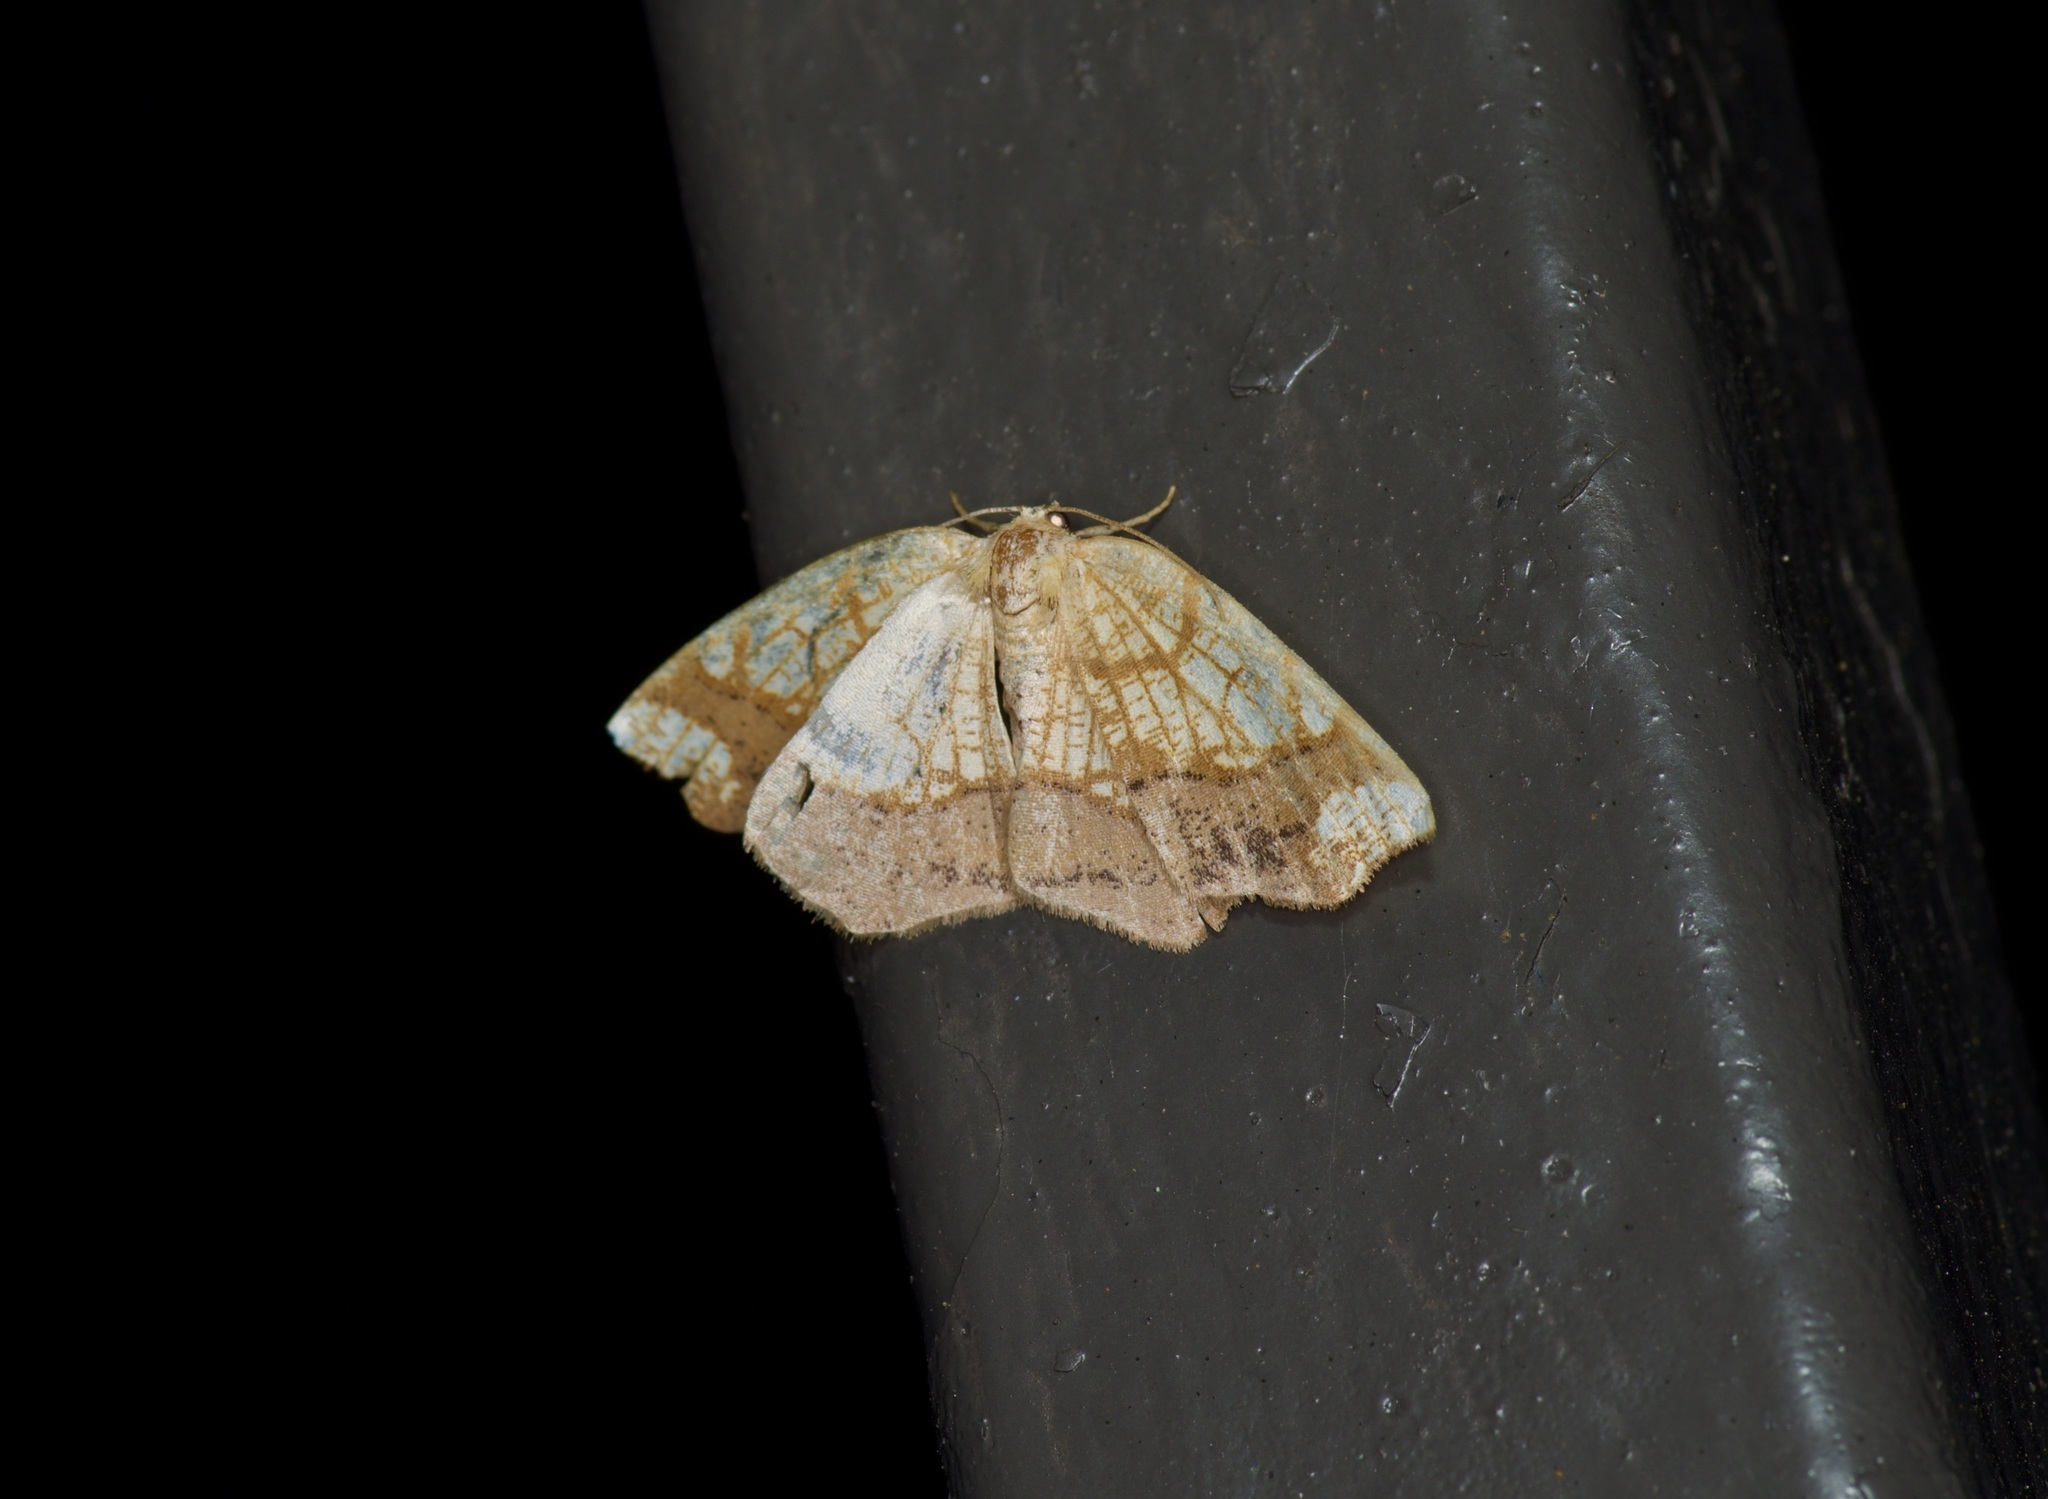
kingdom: Animalia
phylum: Arthropoda
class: Insecta
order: Lepidoptera
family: Geometridae
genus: Nematocampa
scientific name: Nematocampa resistaria
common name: Horned spanworm moth
